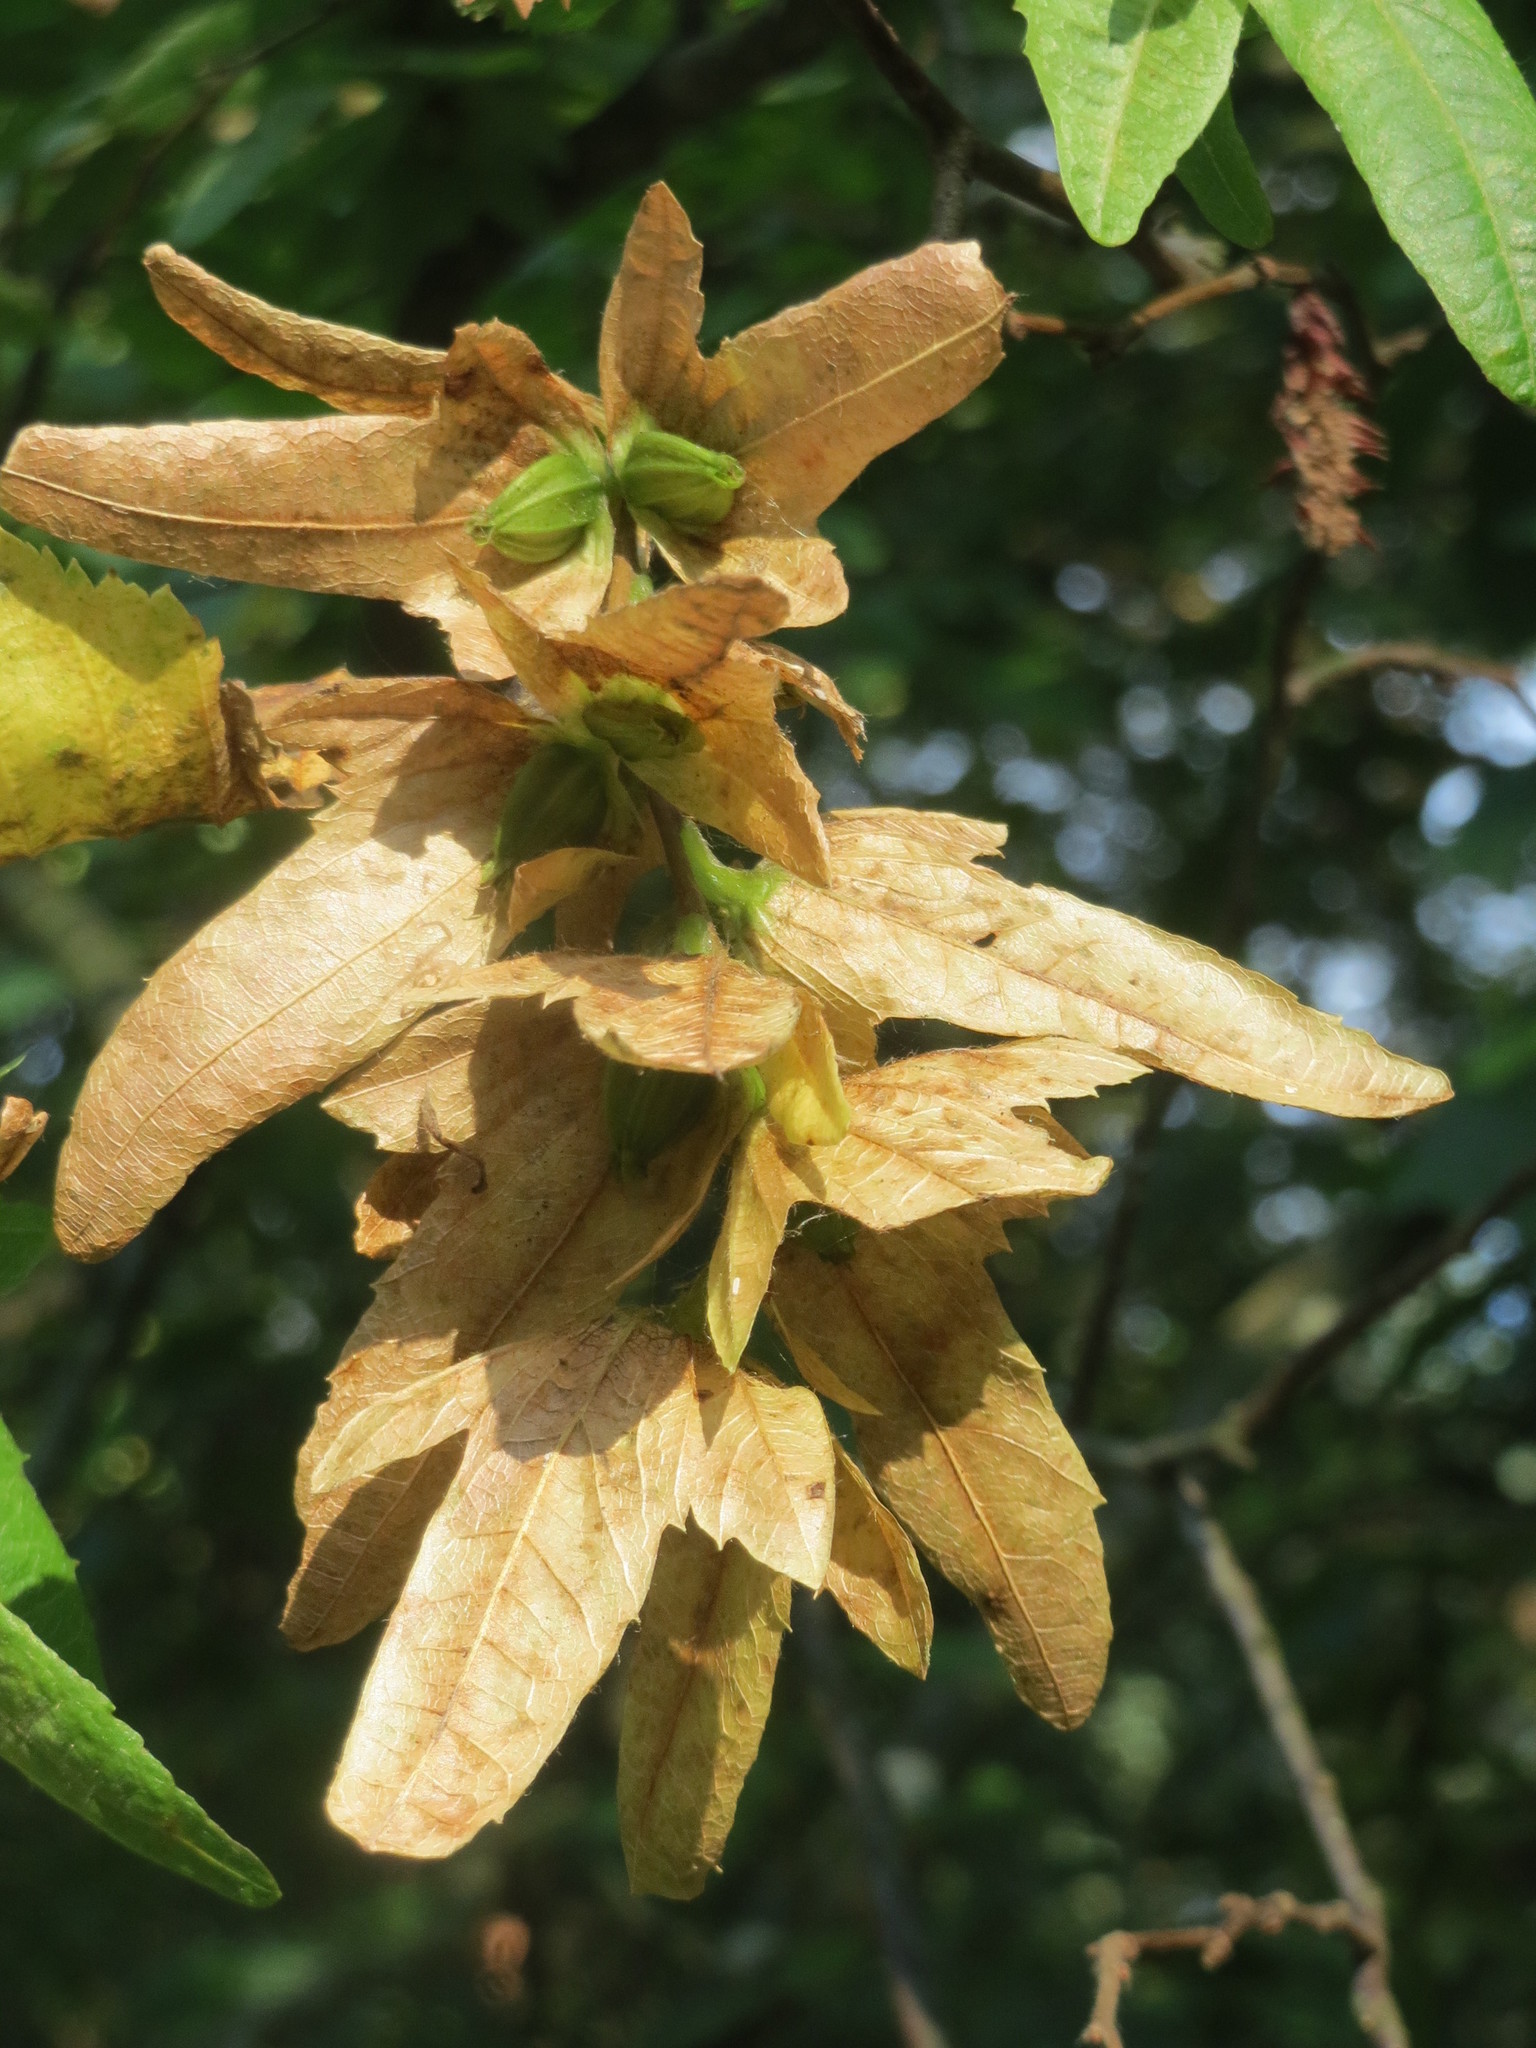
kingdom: Plantae
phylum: Tracheophyta
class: Magnoliopsida
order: Fagales
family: Betulaceae
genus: Carpinus
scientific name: Carpinus betulus
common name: Hornbeam
